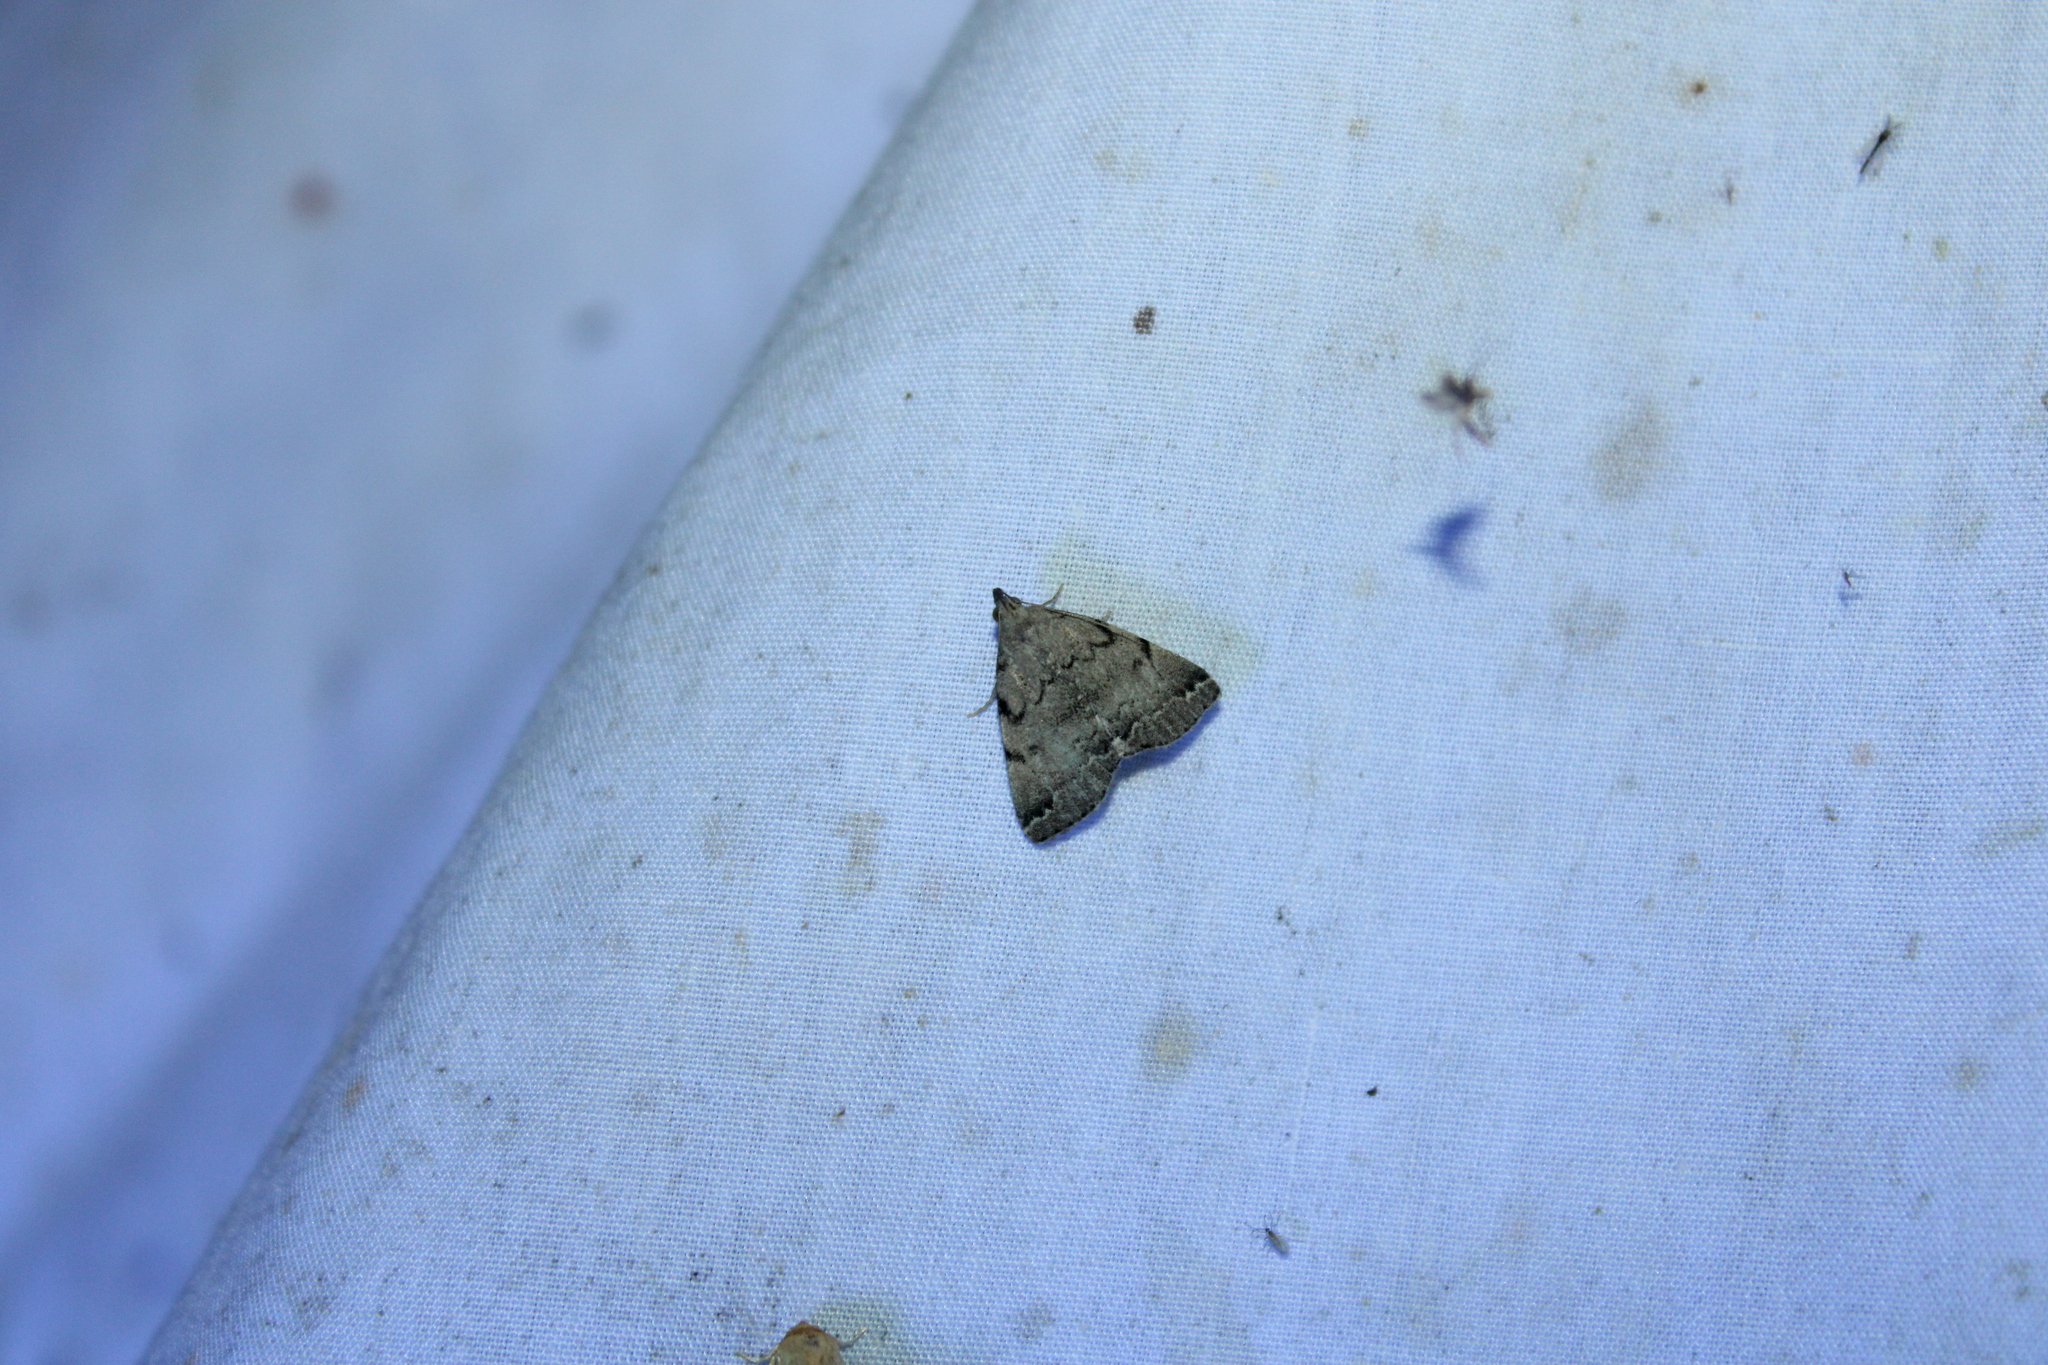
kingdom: Animalia
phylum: Arthropoda
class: Insecta
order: Lepidoptera
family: Erebidae
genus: Zanclognatha
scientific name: Zanclognatha theralis
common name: Flagged fan-foot
